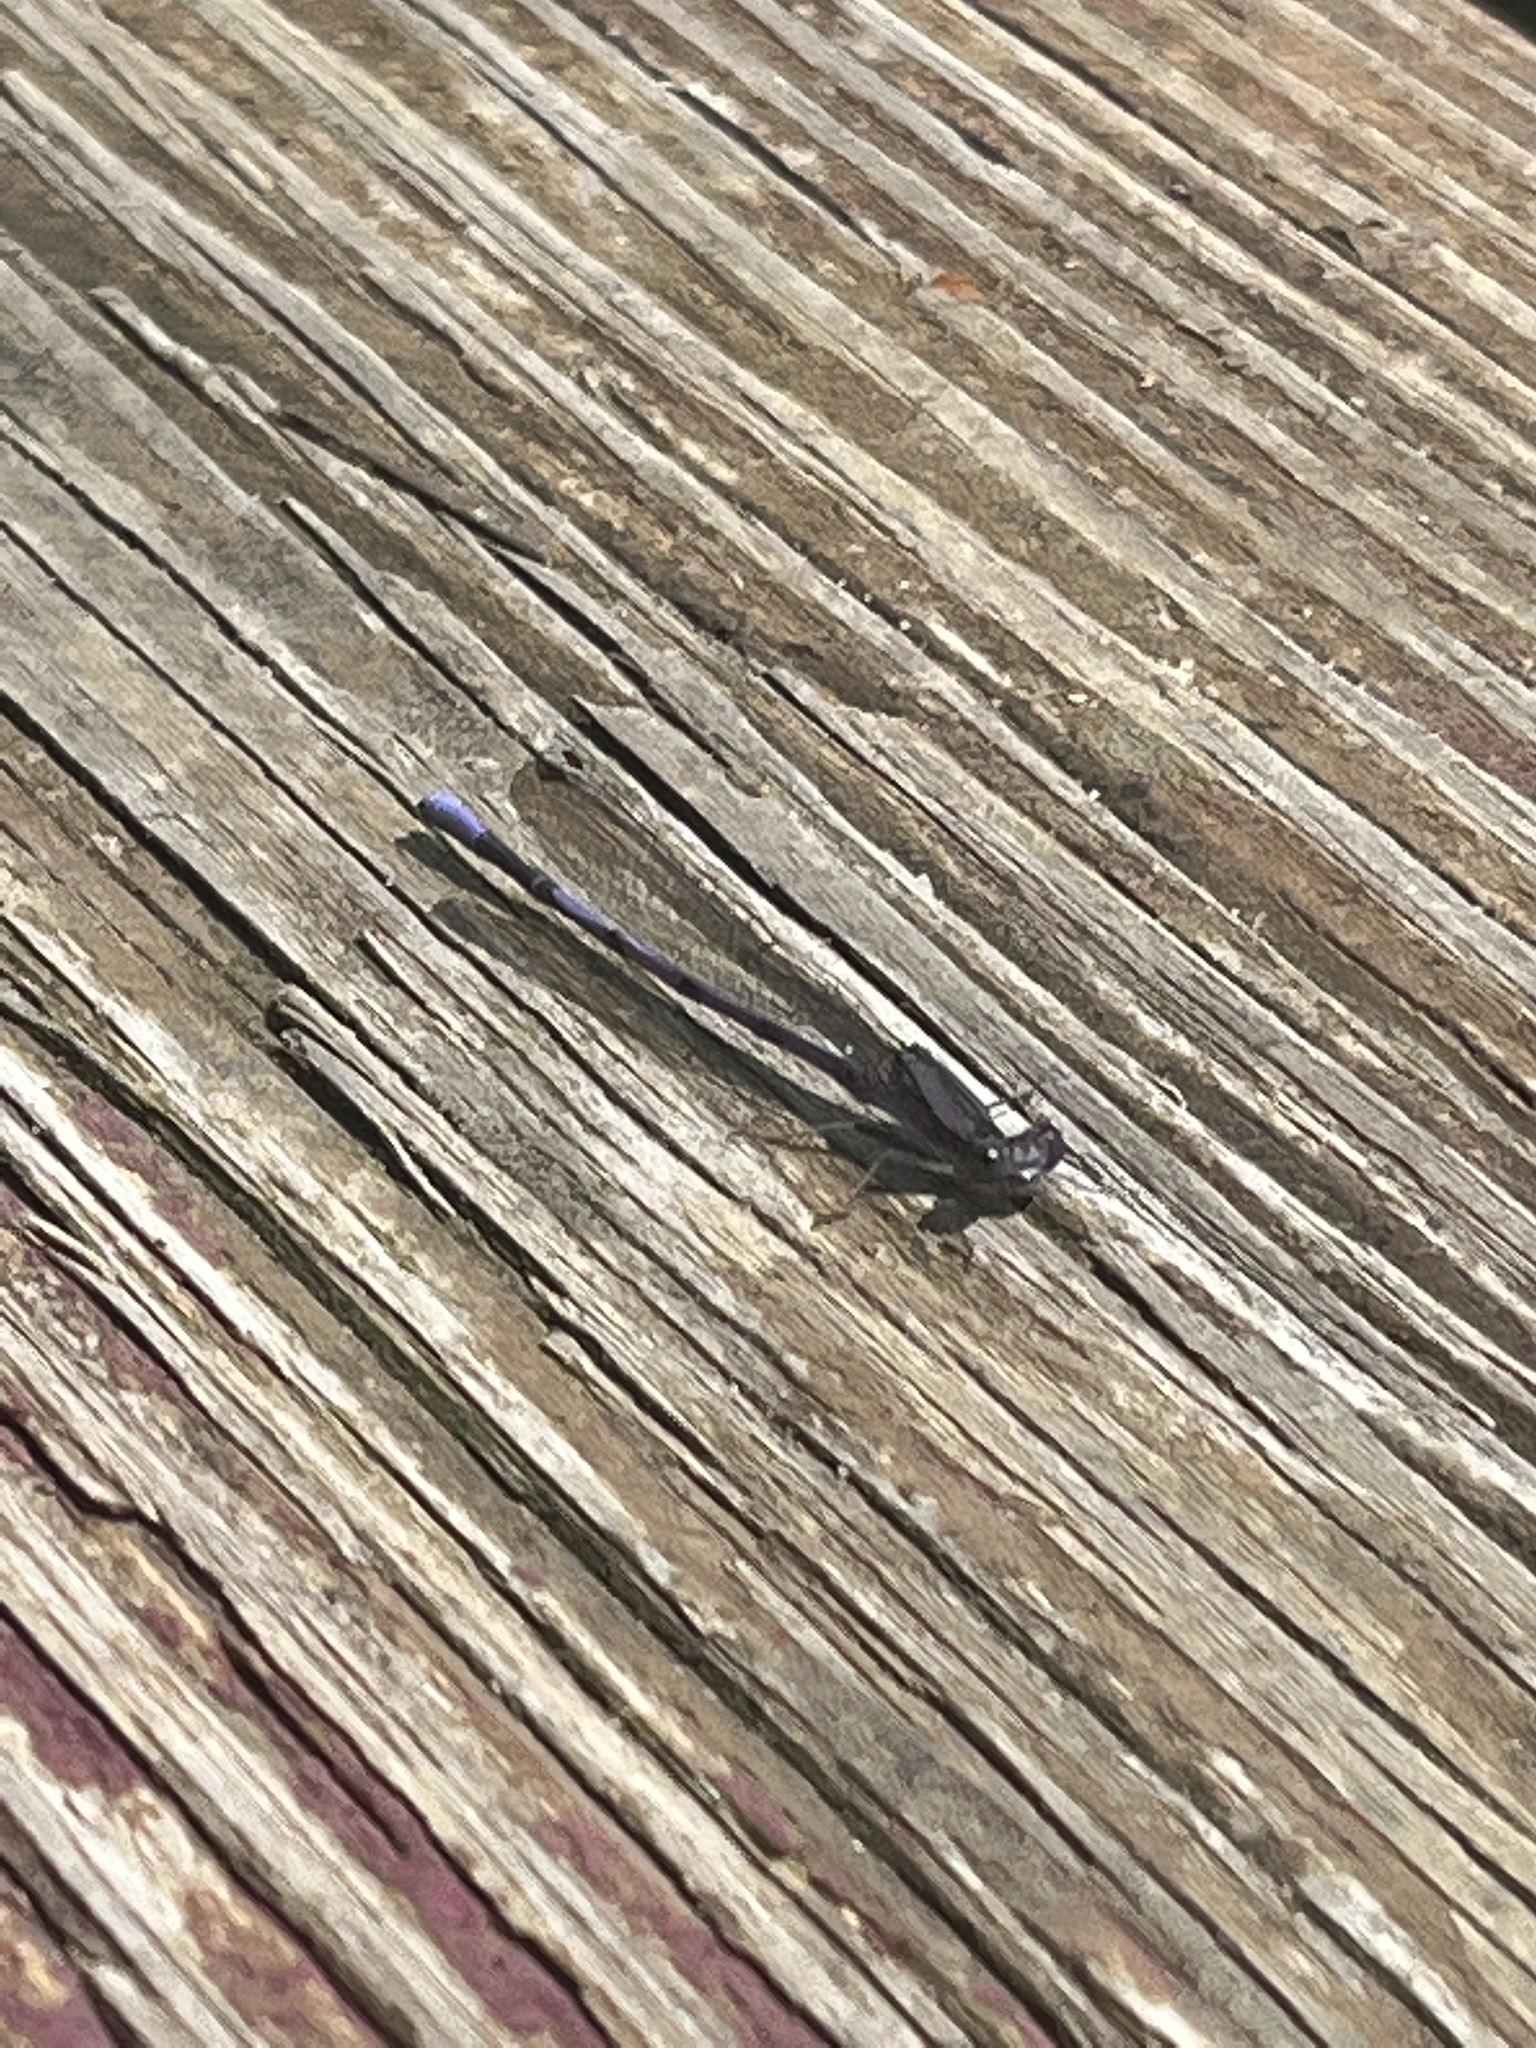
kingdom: Animalia
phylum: Arthropoda
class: Insecta
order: Odonata
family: Coenagrionidae
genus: Argia
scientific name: Argia fumipennis
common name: Variable dancer
